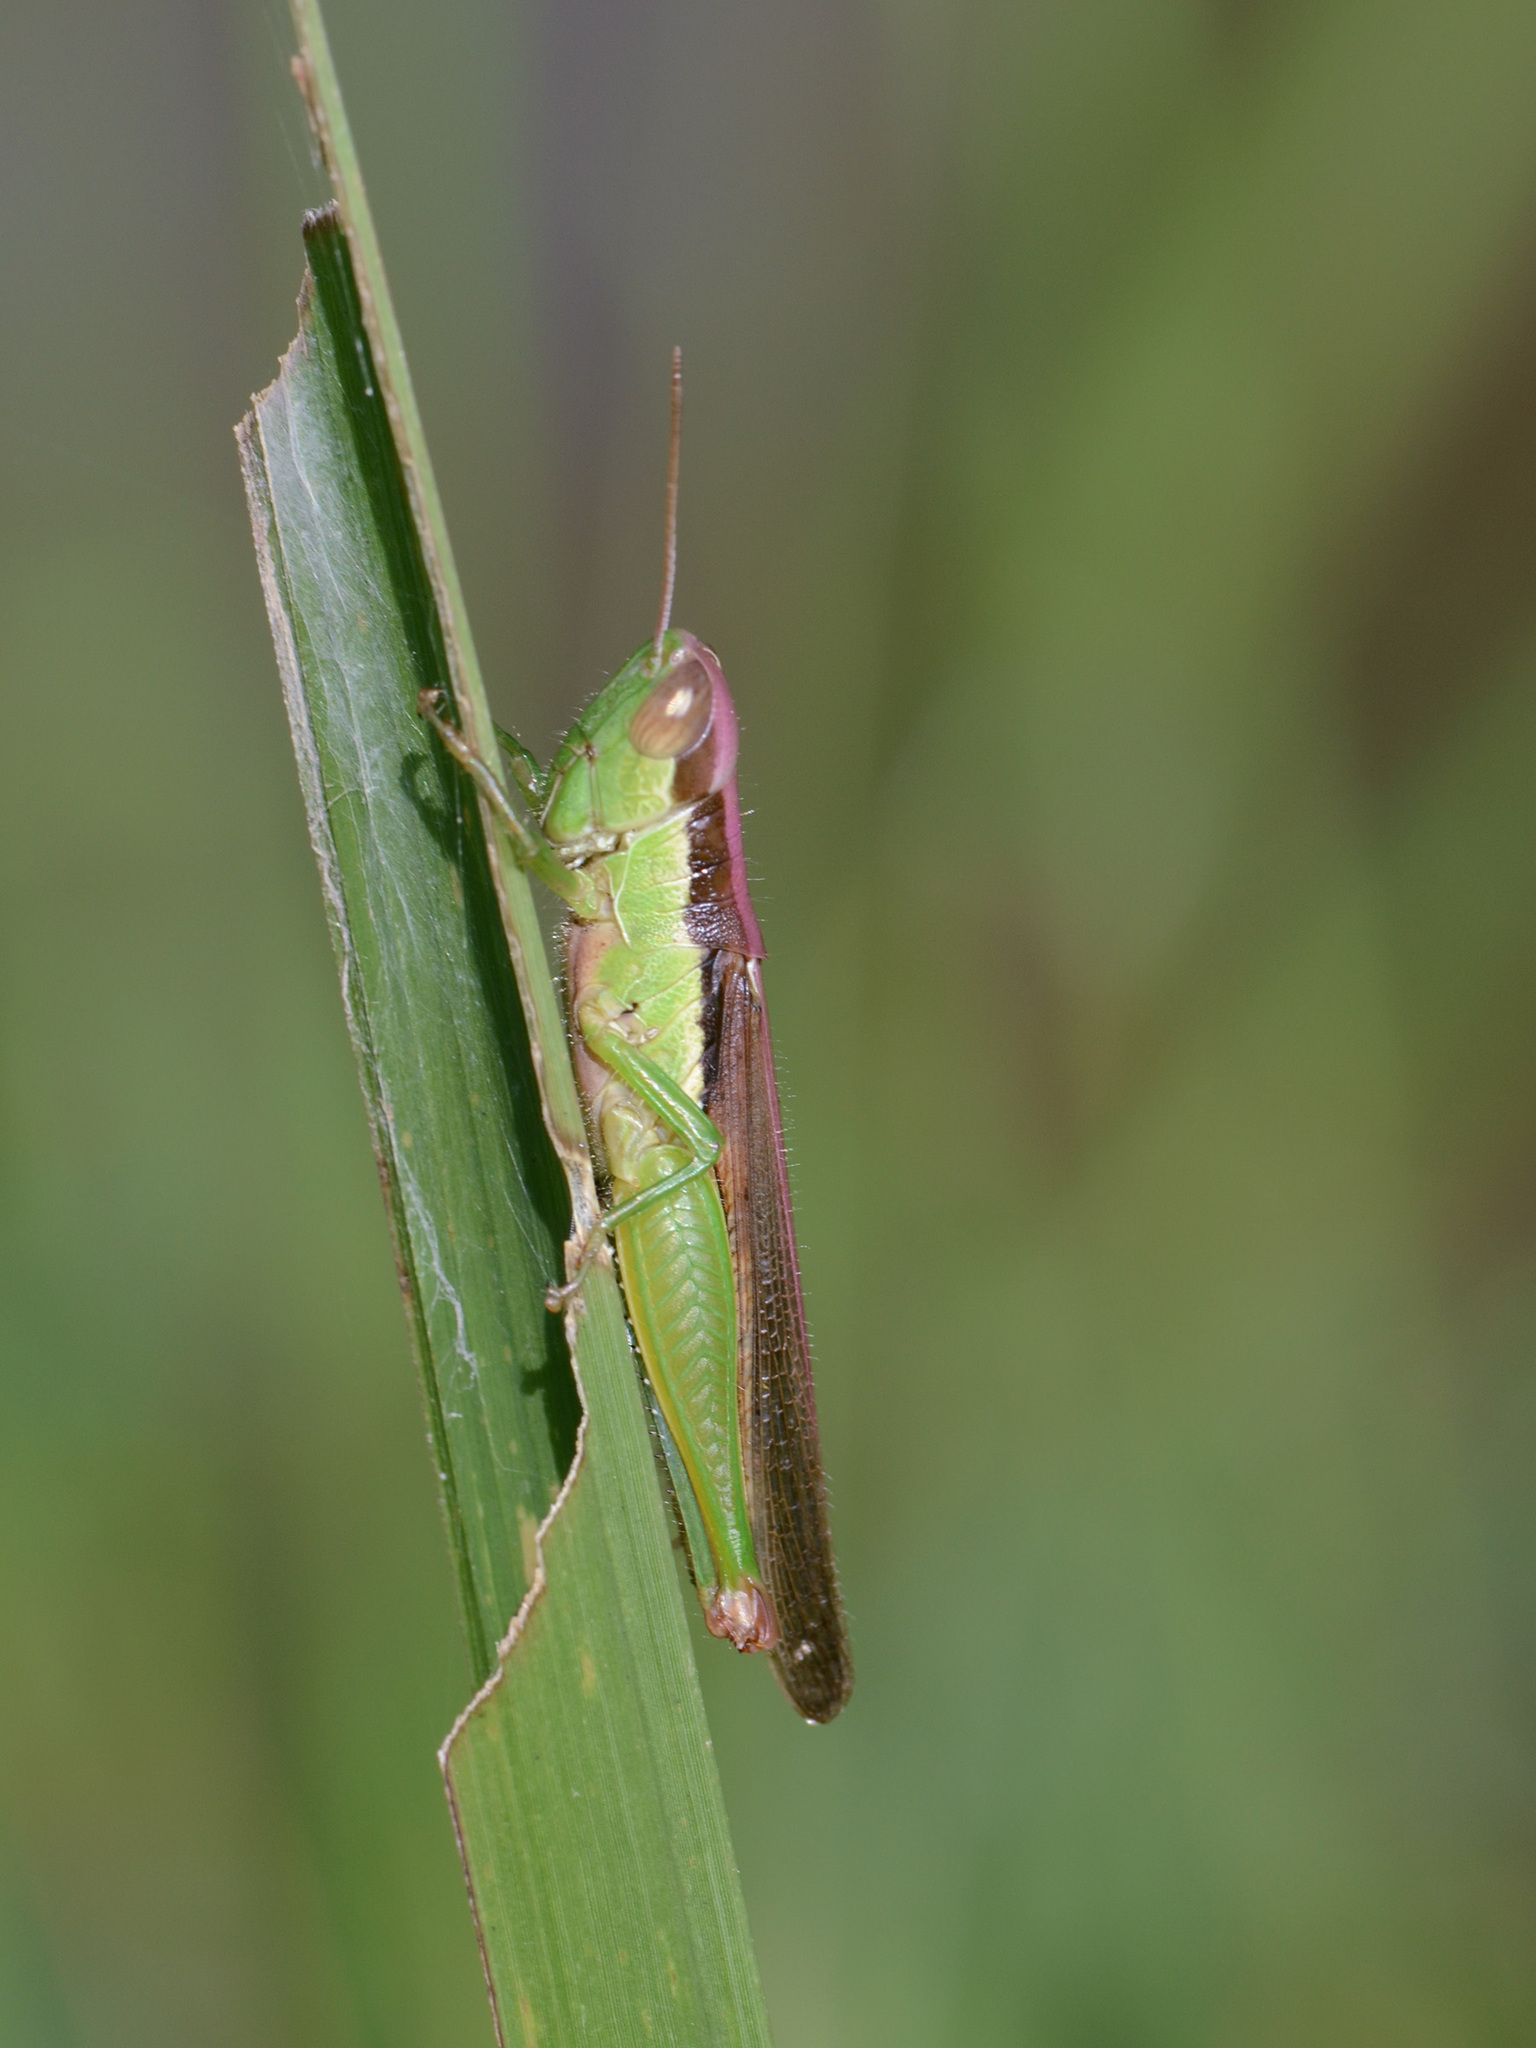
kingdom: Animalia
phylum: Arthropoda
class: Insecta
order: Orthoptera
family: Acrididae
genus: Oxya
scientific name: Oxya japonica
